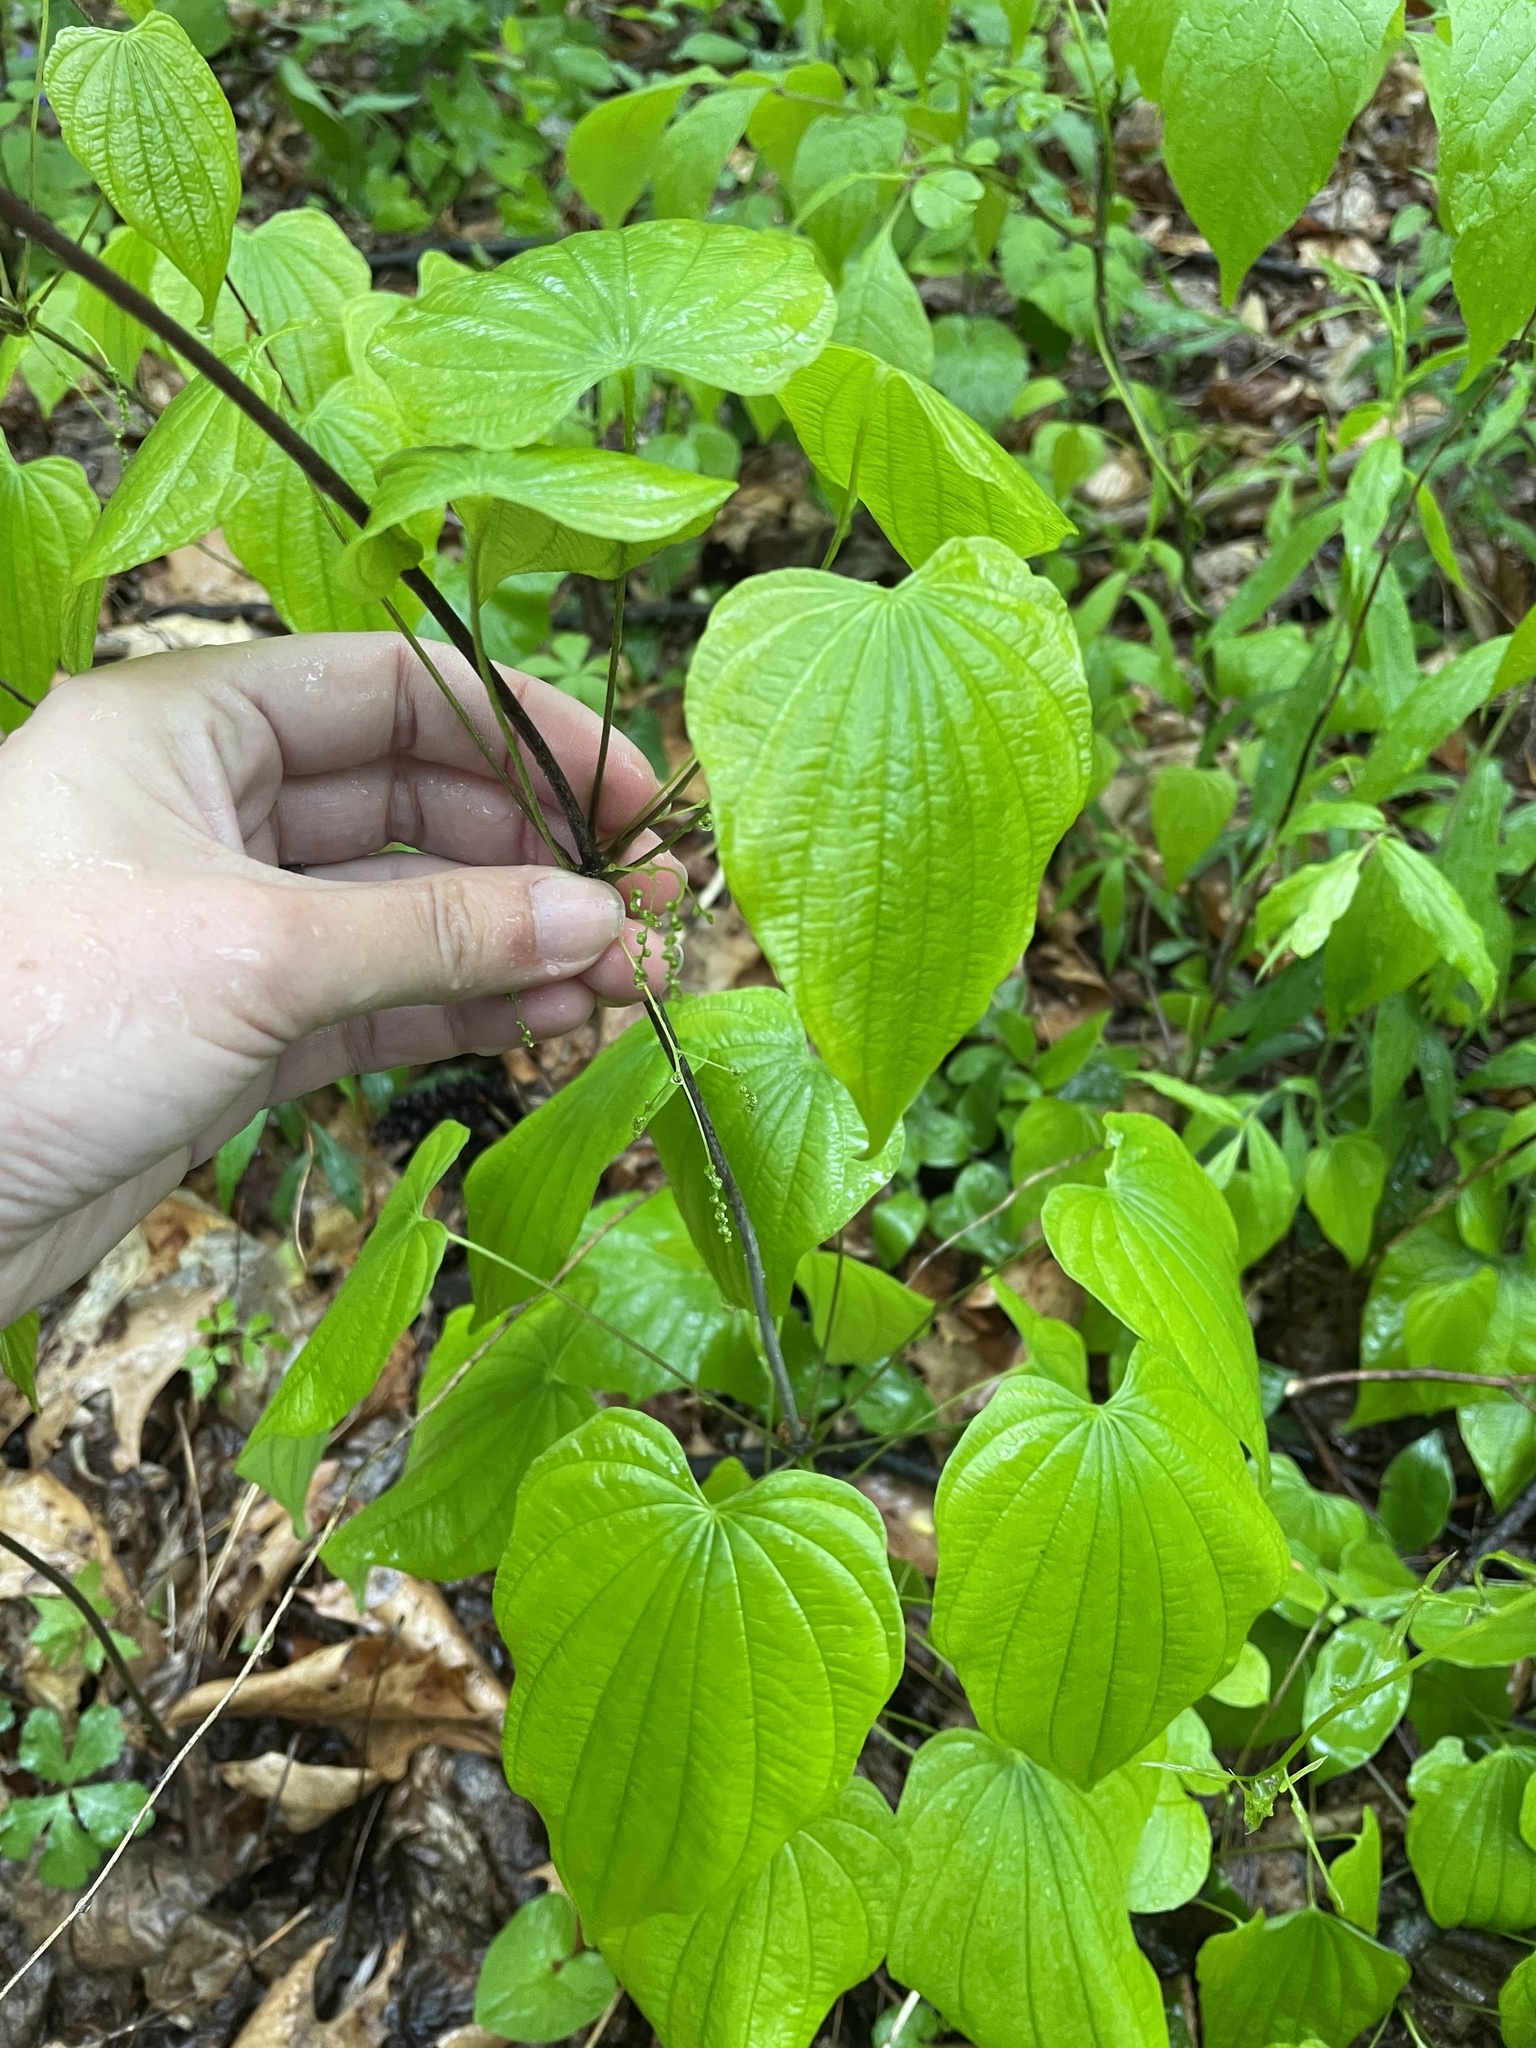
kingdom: Plantae
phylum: Tracheophyta
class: Liliopsida
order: Dioscoreales
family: Dioscoreaceae
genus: Dioscorea
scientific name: Dioscorea villosa
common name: Wild yam
